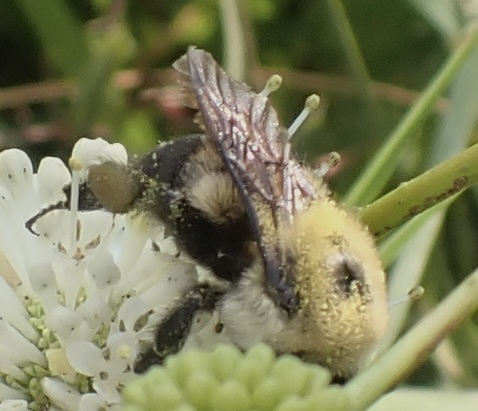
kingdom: Animalia
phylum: Arthropoda
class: Insecta
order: Hymenoptera
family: Apidae
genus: Bombus
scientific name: Bombus griseocollis
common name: Brown-belted bumble bee
